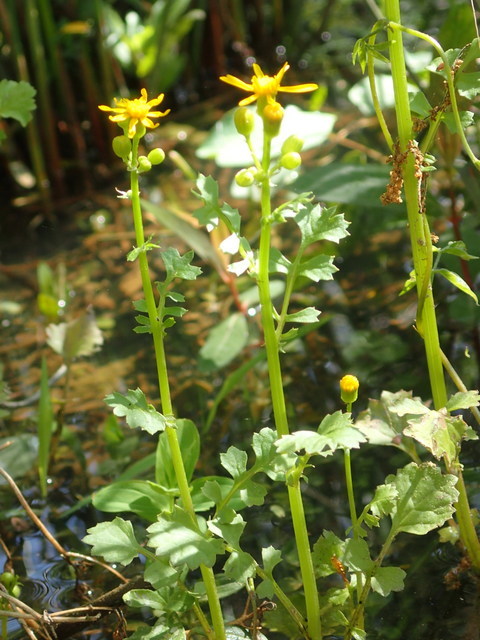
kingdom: Plantae
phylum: Tracheophyta
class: Magnoliopsida
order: Asterales
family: Asteraceae
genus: Packera
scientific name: Packera glabella
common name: Butterweed
